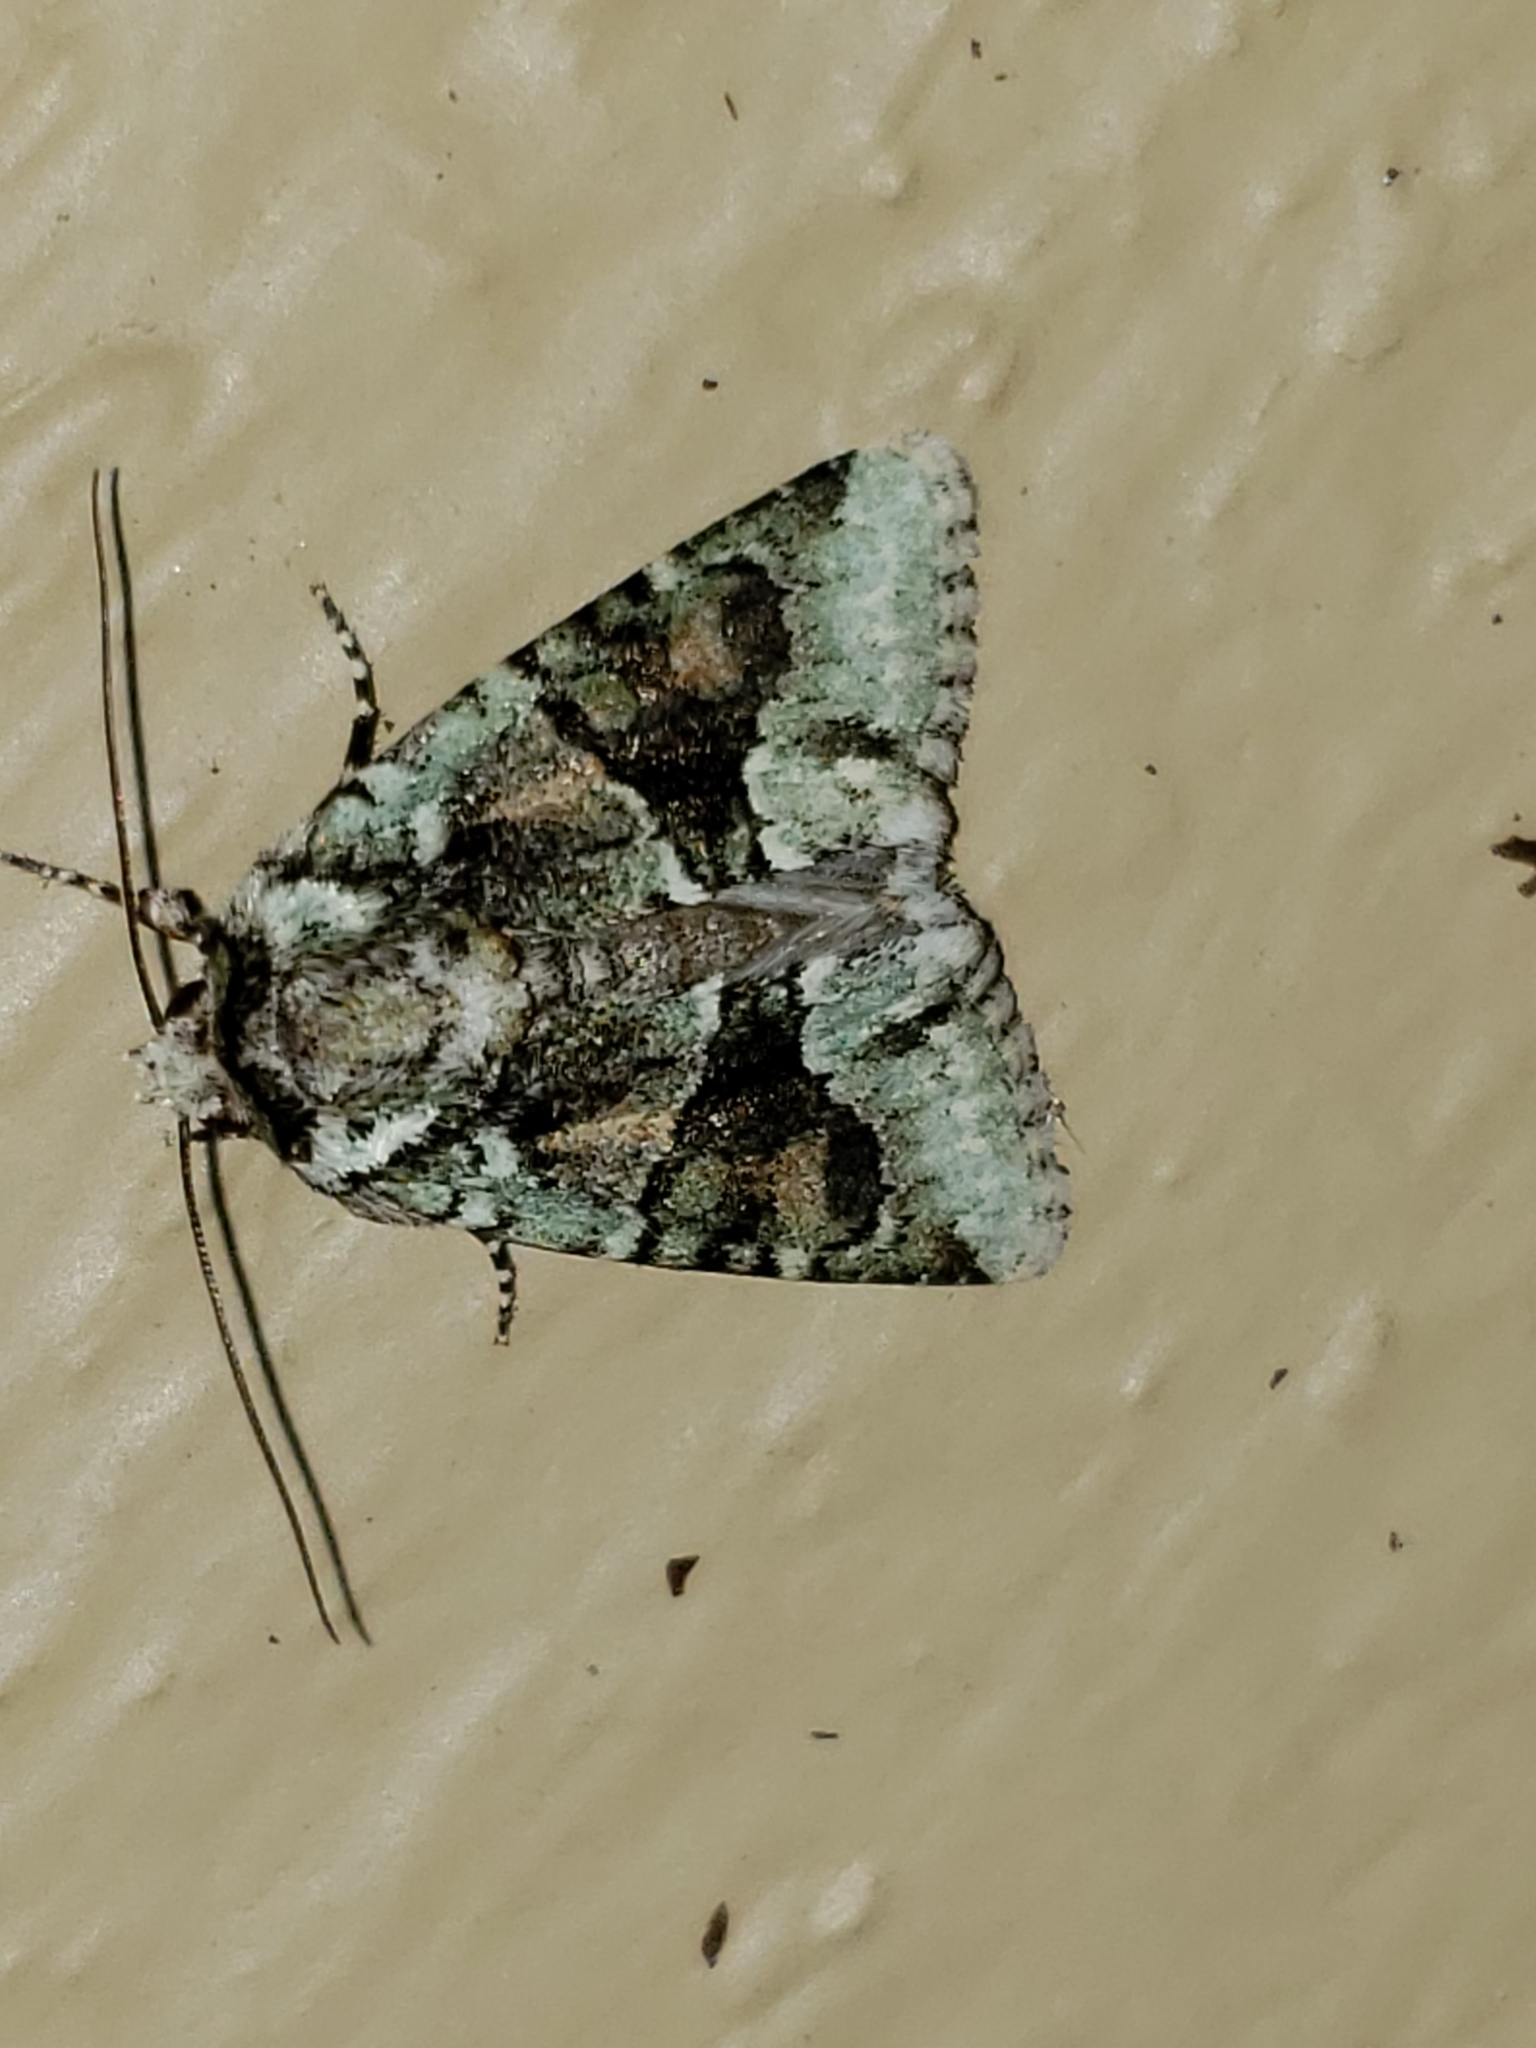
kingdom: Animalia
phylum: Arthropoda
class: Insecta
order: Lepidoptera
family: Noctuidae
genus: Lacinipolia
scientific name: Lacinipolia explicata
